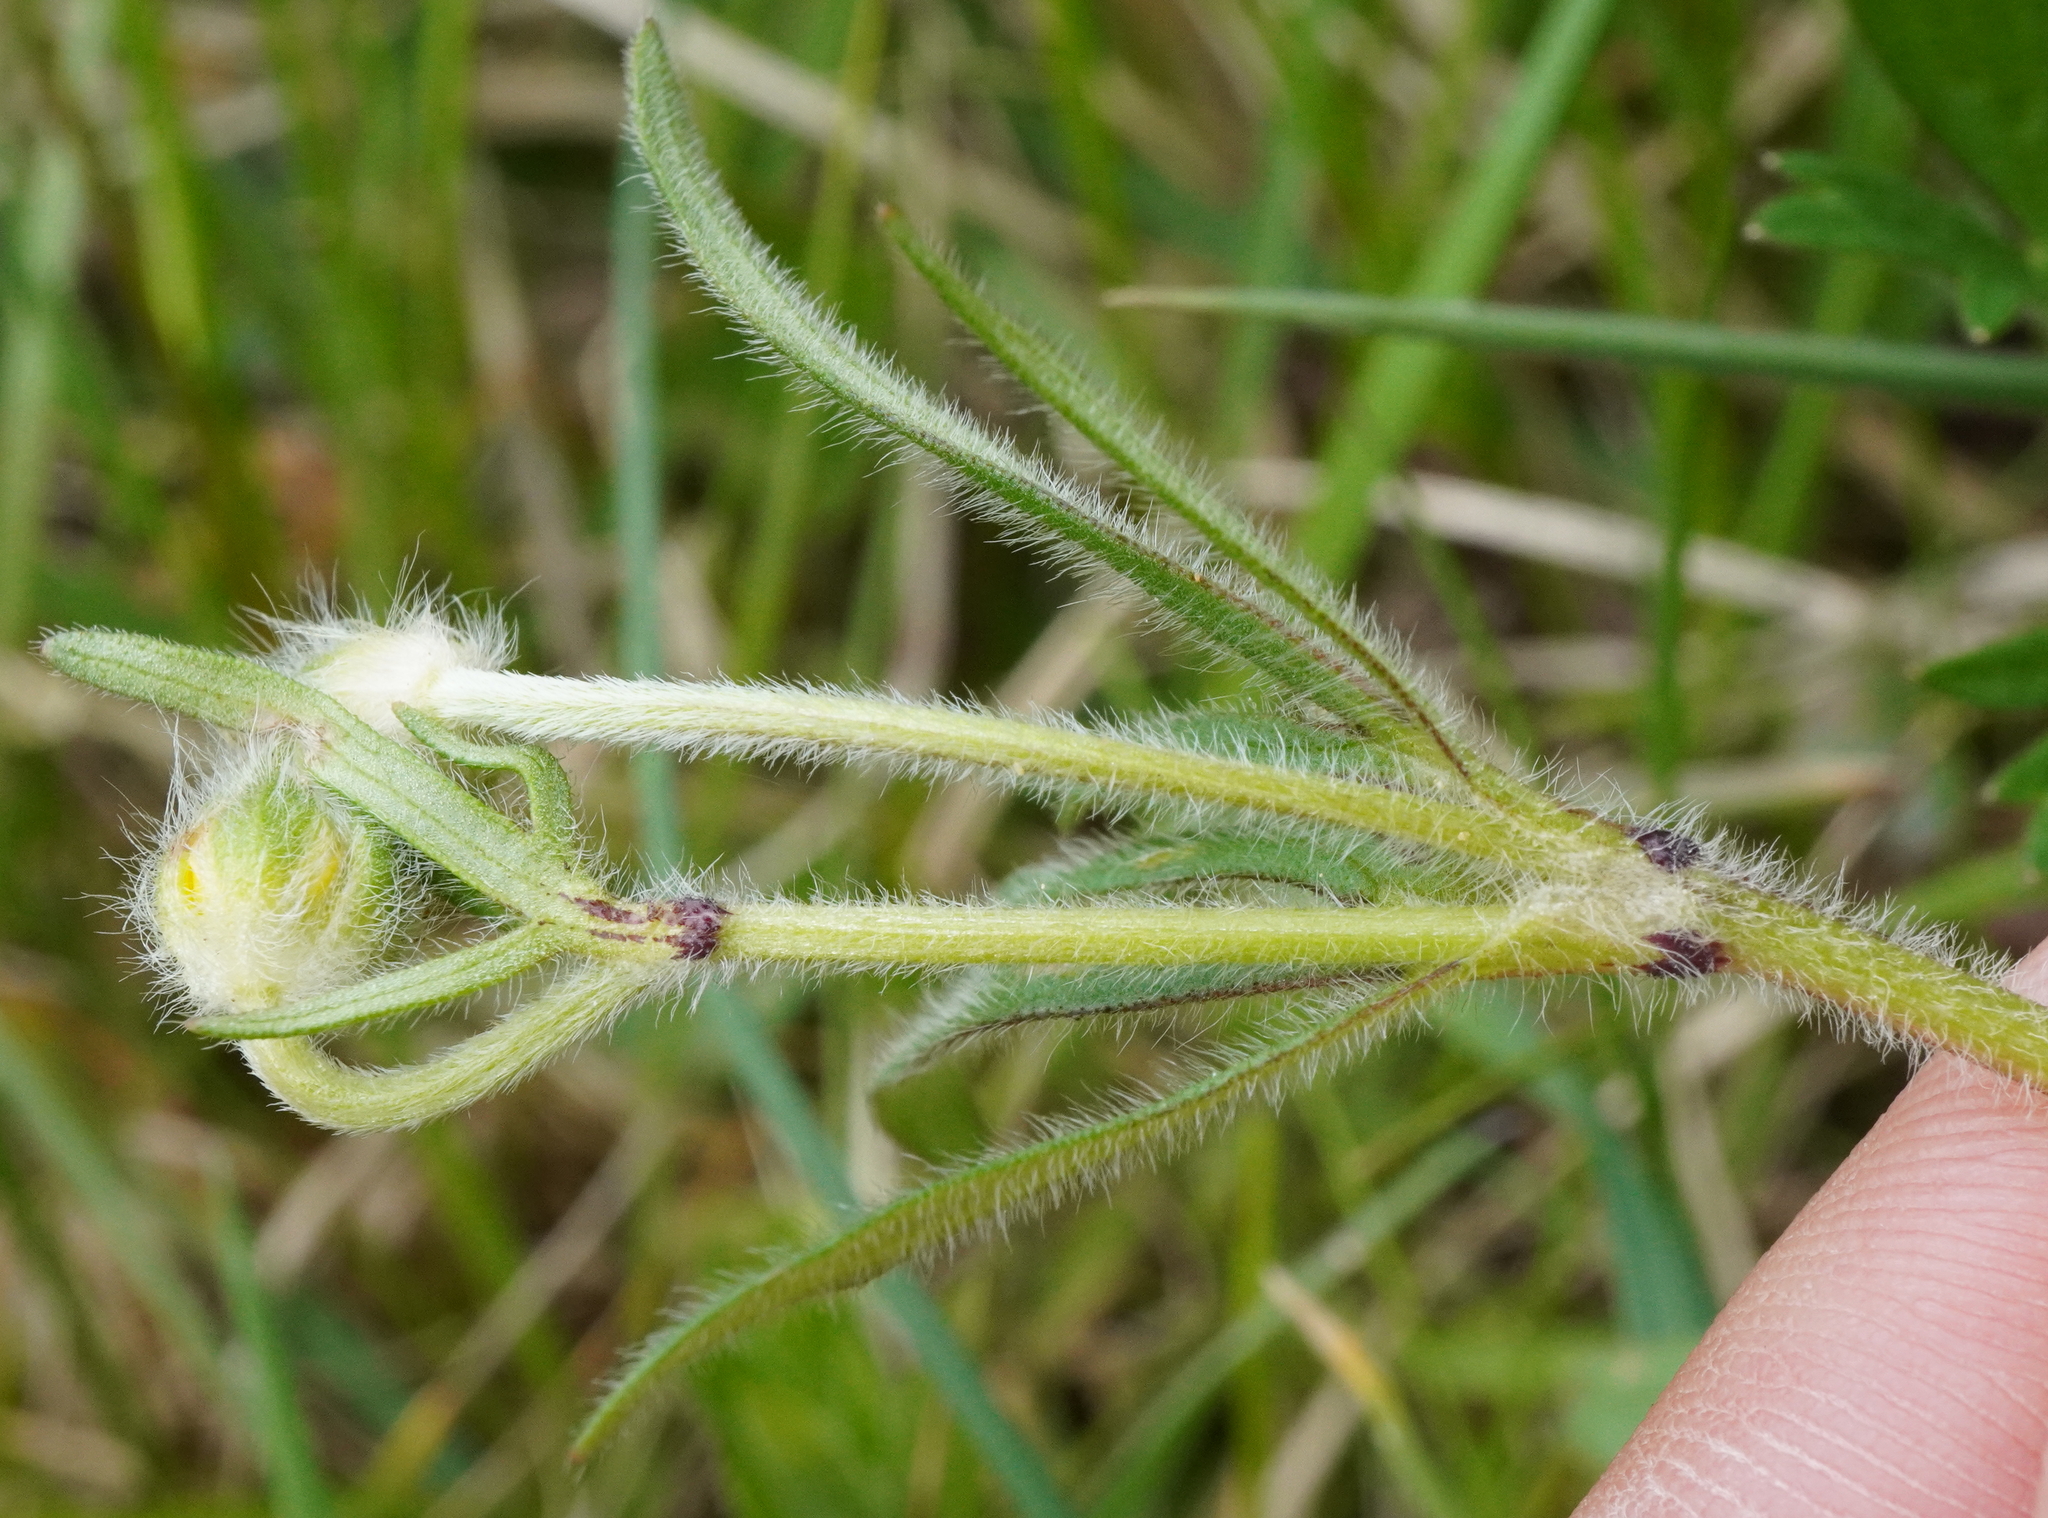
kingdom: Plantae
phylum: Tracheophyta
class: Magnoliopsida
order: Ranunculales
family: Ranunculaceae
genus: Ranunculus
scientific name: Ranunculus bulbosus
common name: Bulbous buttercup
